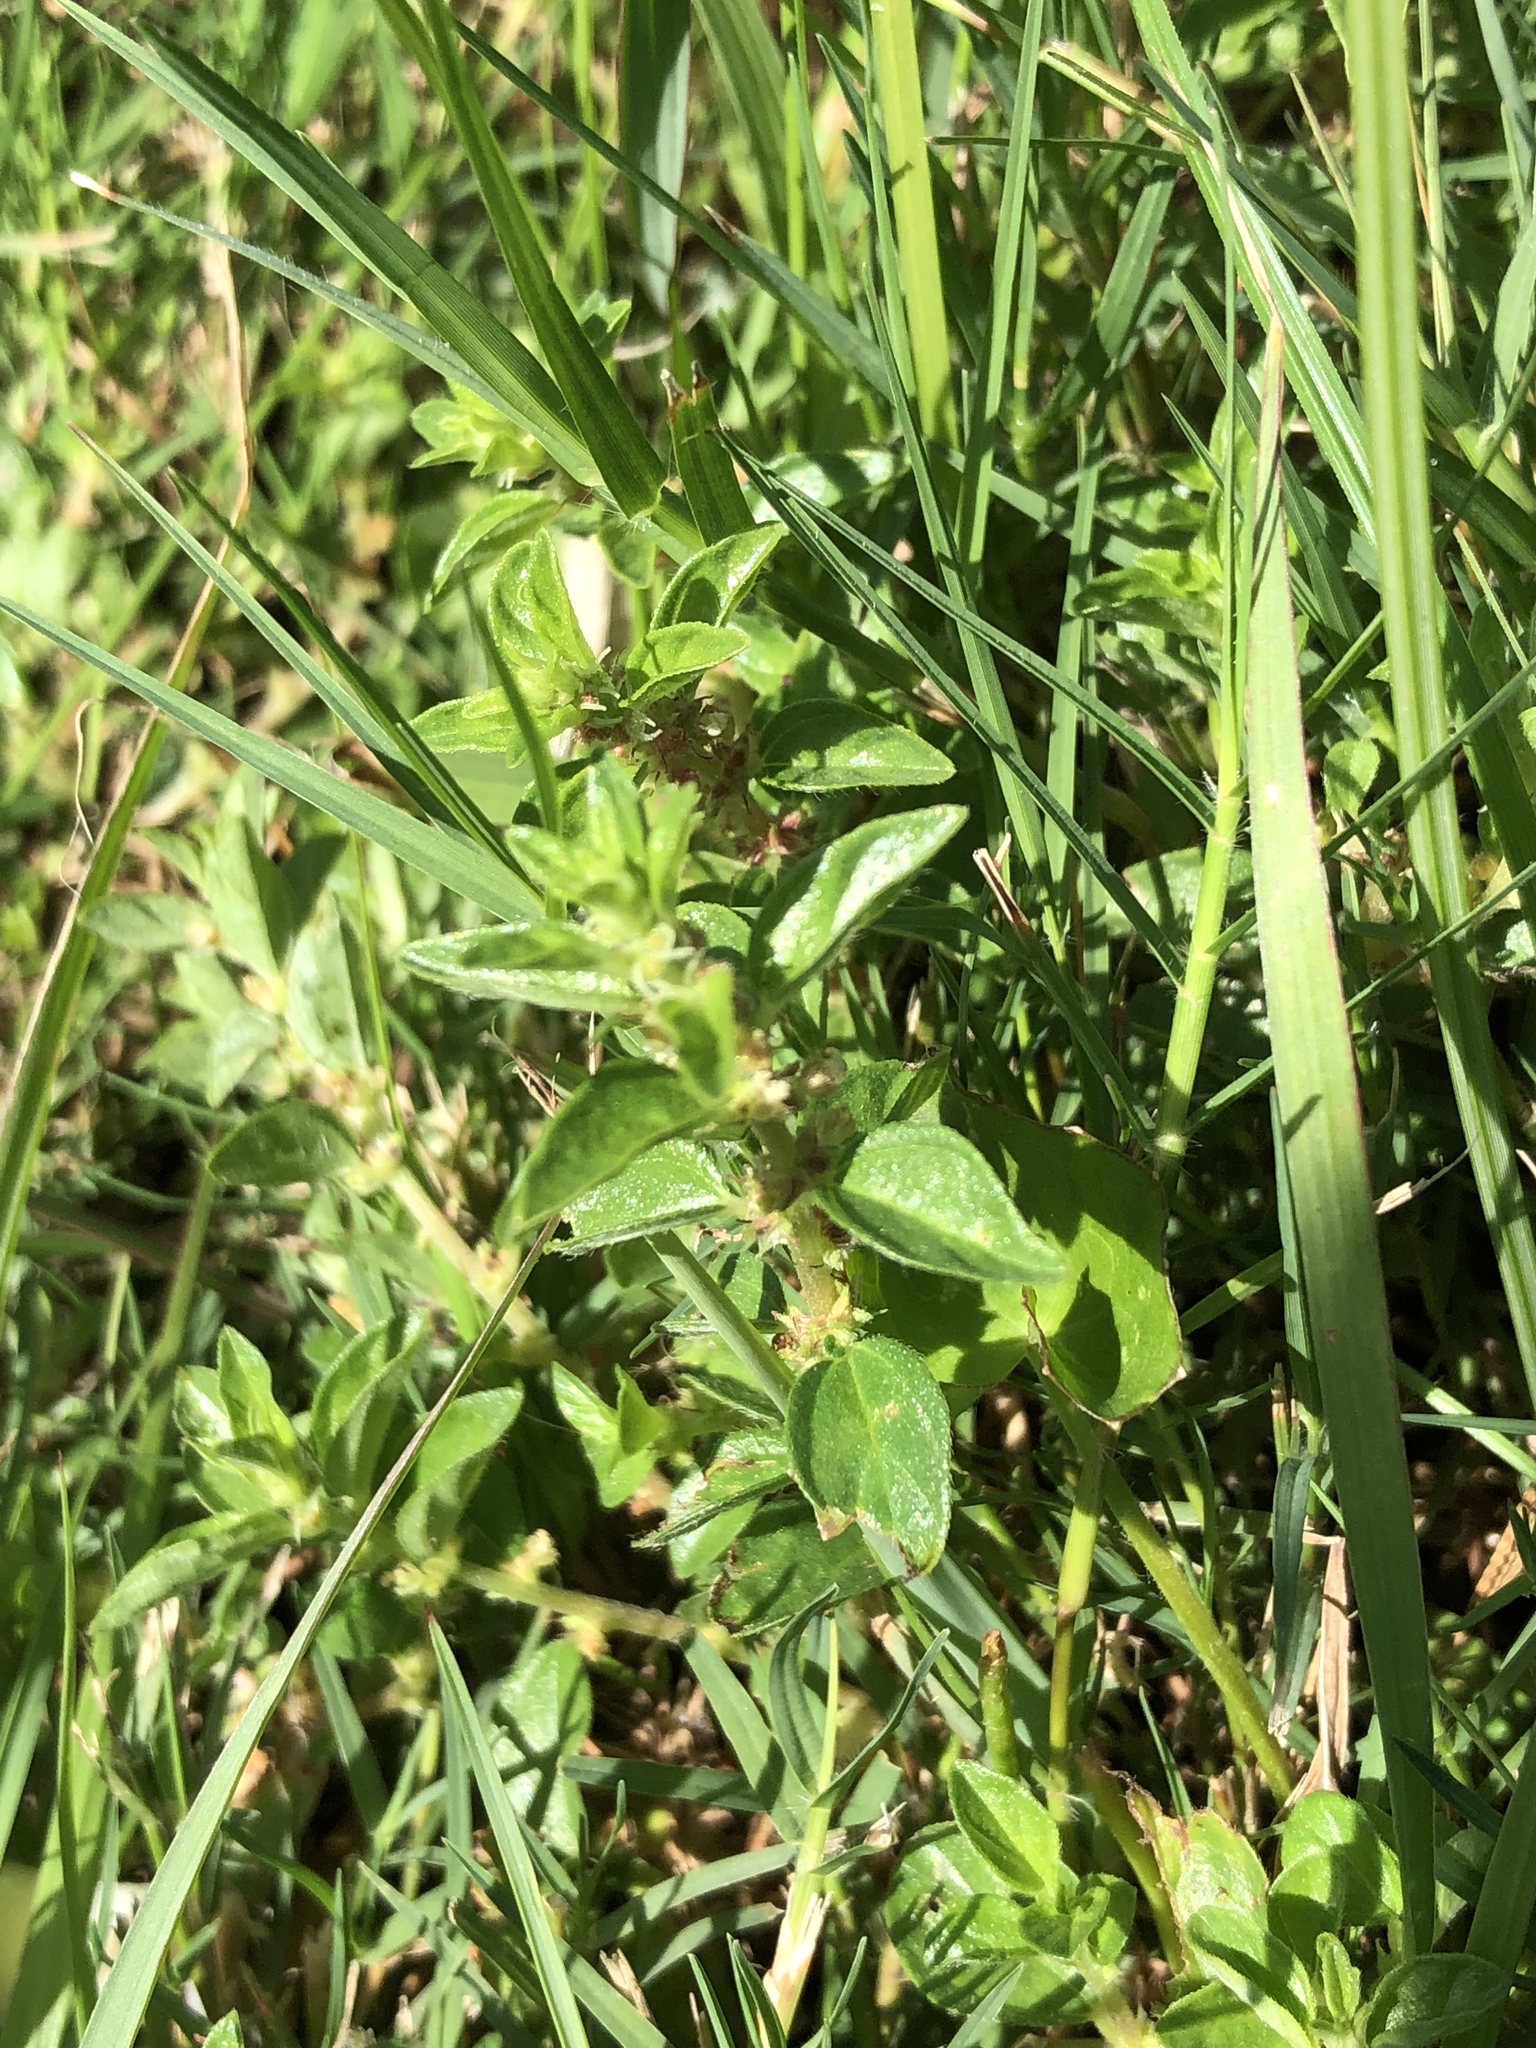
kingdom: Plantae
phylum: Tracheophyta
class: Magnoliopsida
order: Rosales
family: Urticaceae
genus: Pouzolzia
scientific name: Pouzolzia zeylanica
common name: Graceful pouzolzsbush
